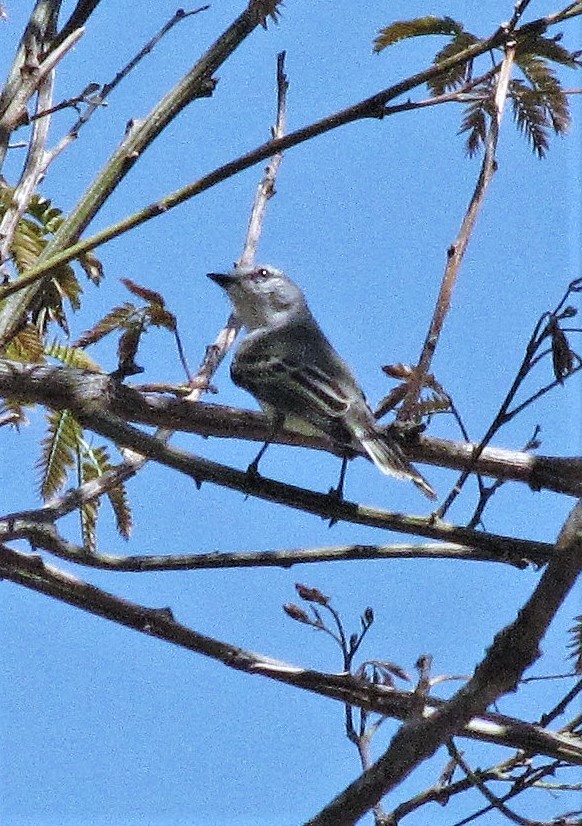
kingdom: Animalia
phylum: Chordata
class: Aves
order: Passeriformes
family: Tyrannidae
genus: Suiriri
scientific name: Suiriri suiriri
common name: Suiriri flycatcher
